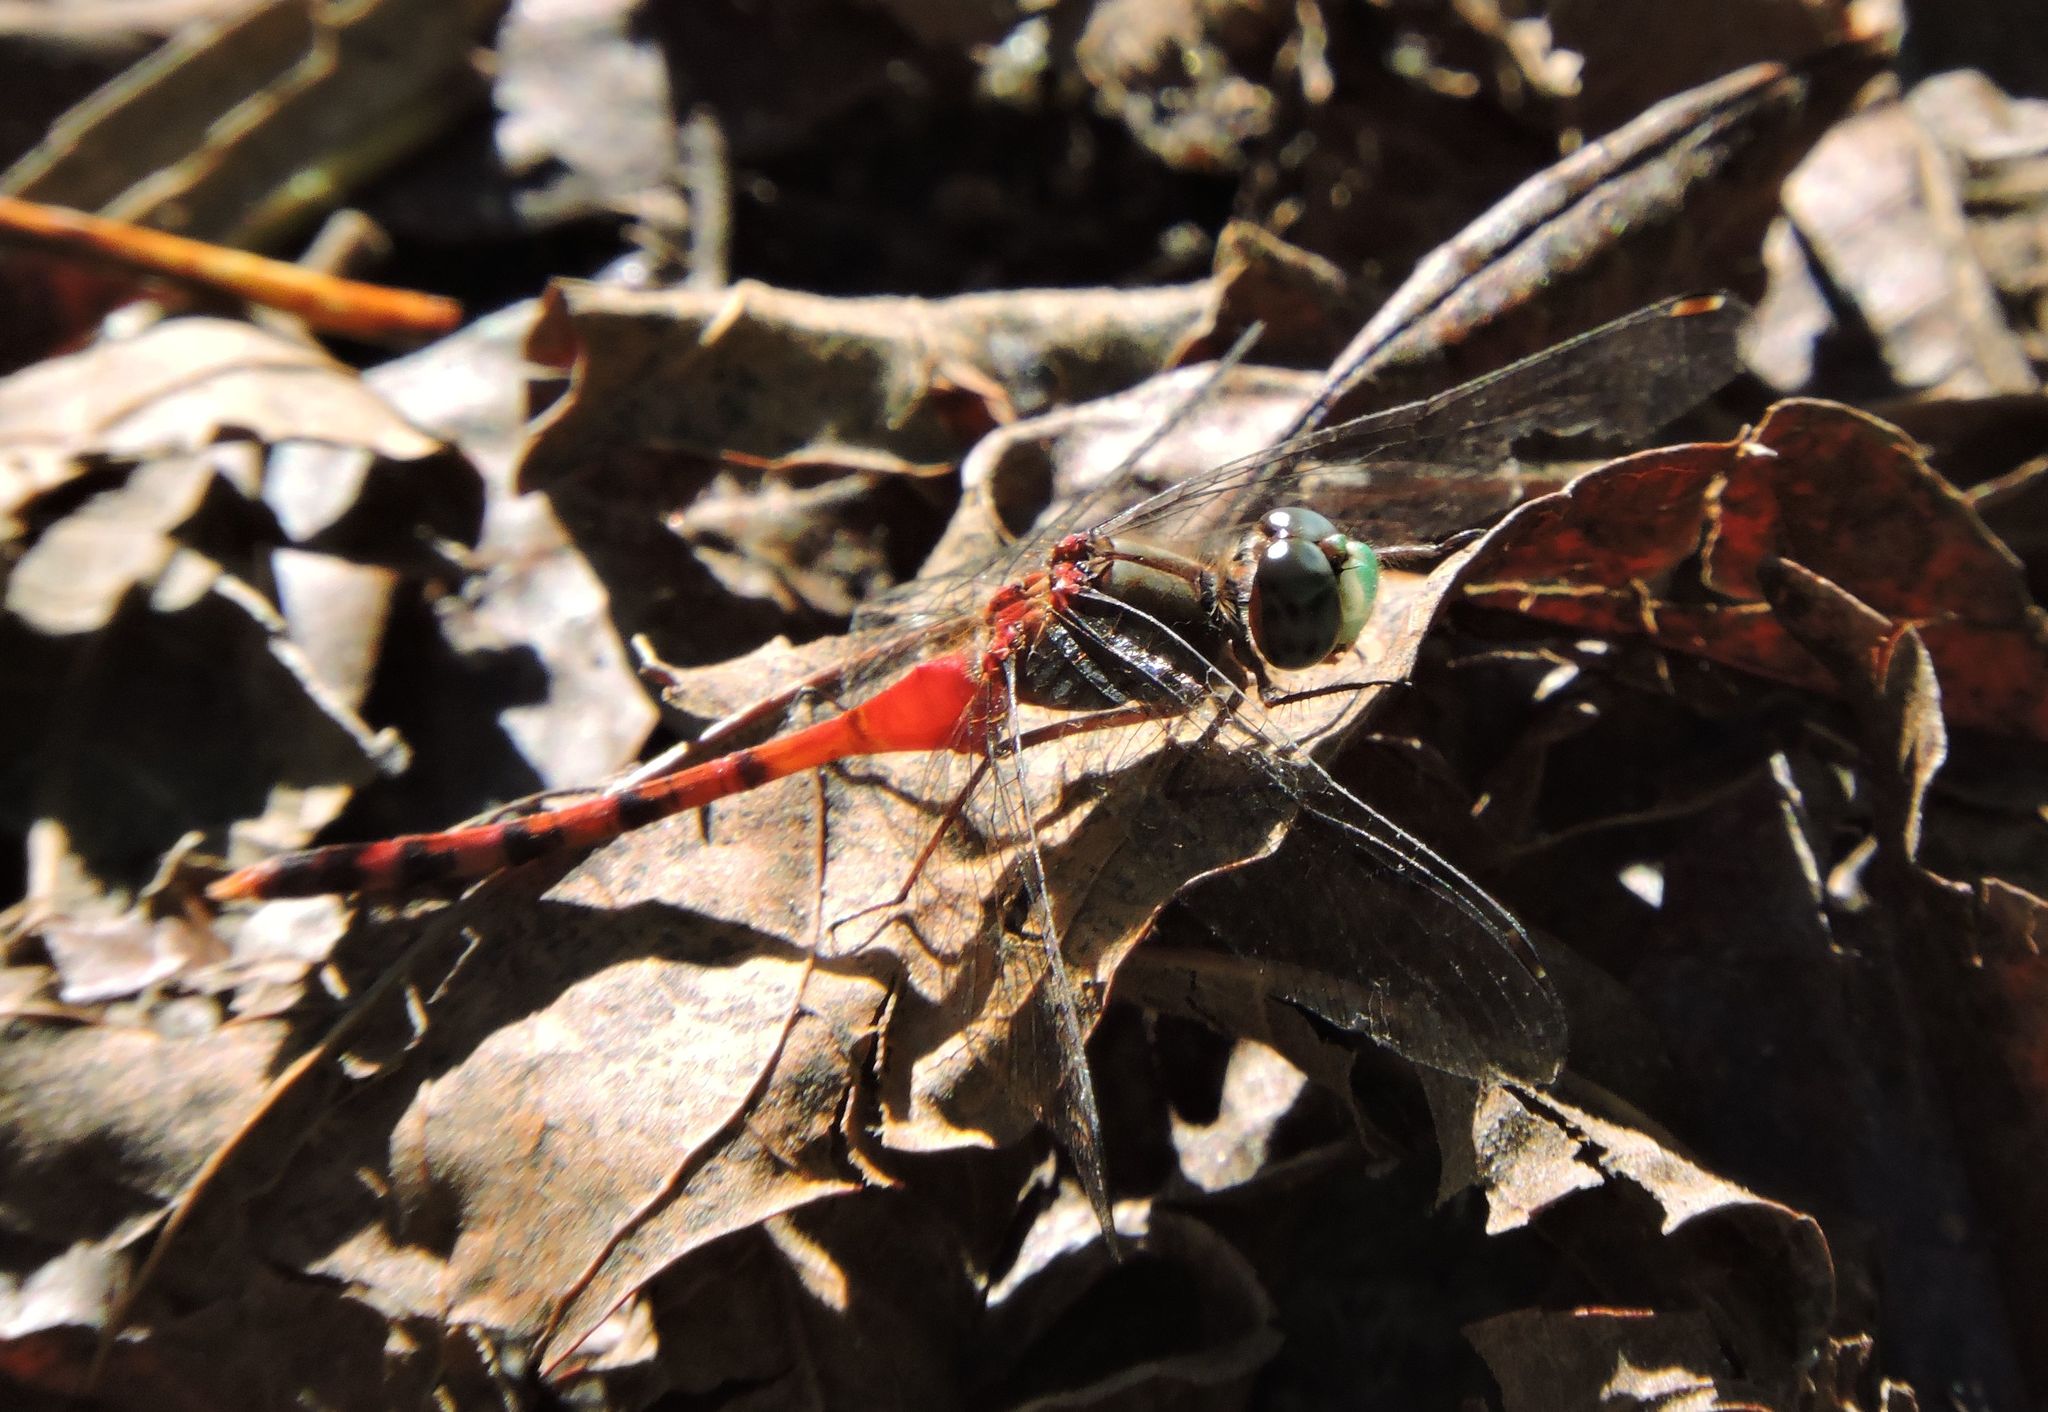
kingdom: Animalia
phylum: Arthropoda
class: Insecta
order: Odonata
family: Libellulidae
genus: Sympetrum
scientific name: Sympetrum ambiguum
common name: Blue-faced meadowhawk
